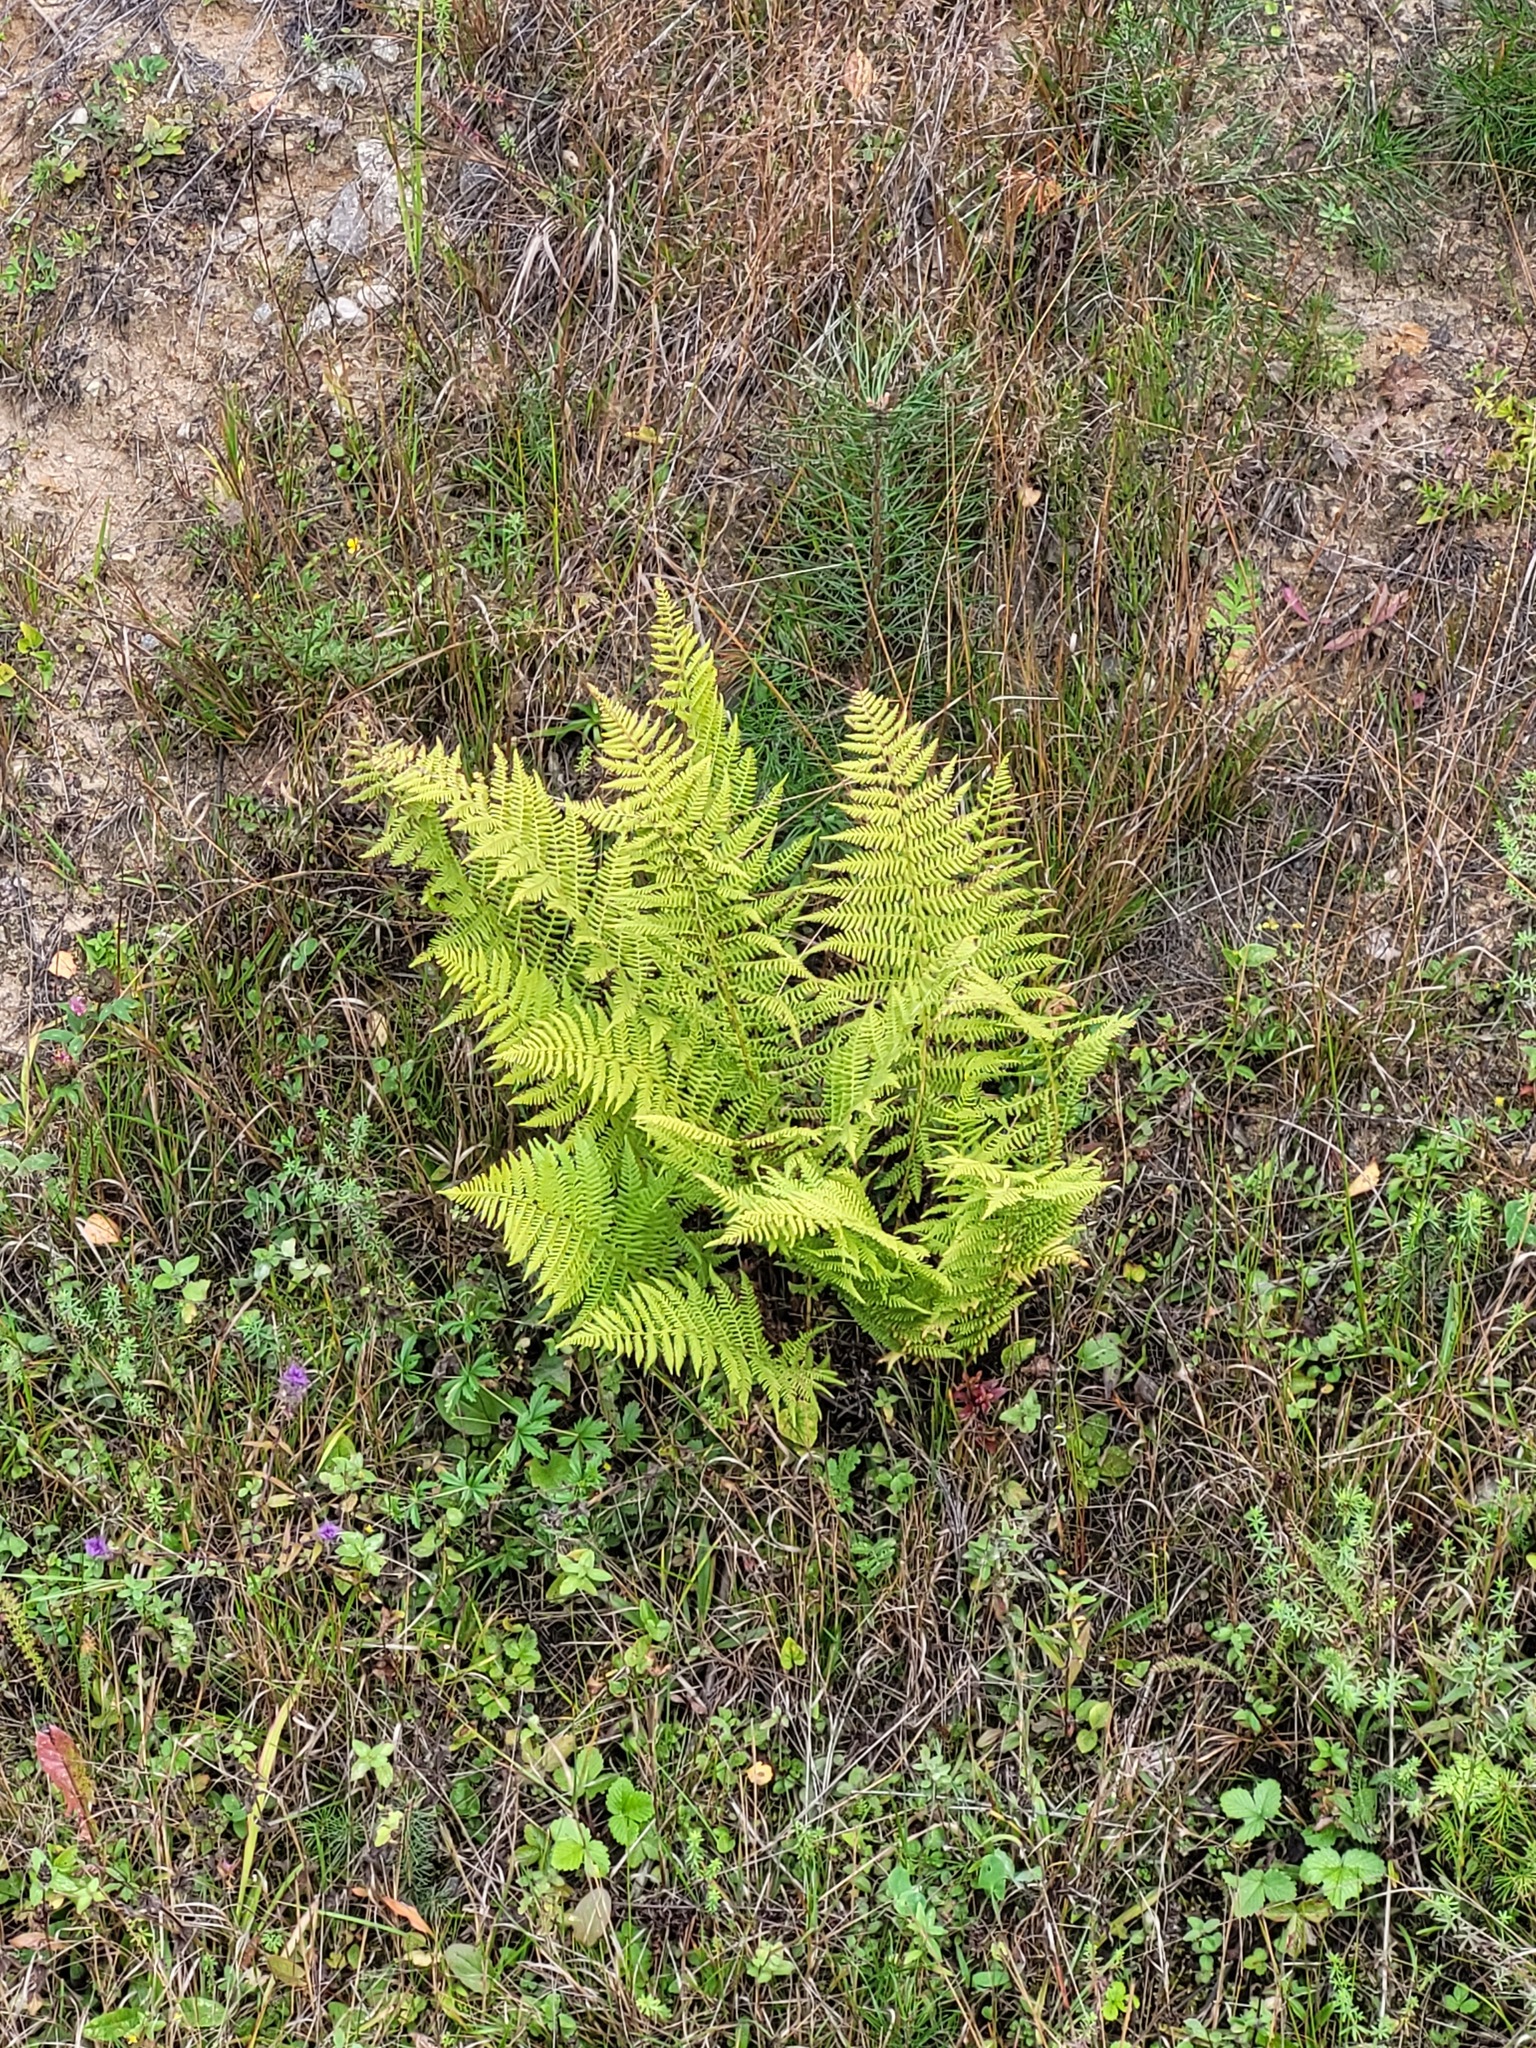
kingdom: Plantae
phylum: Tracheophyta
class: Polypodiopsida
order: Polypodiales
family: Athyriaceae
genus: Athyrium
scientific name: Athyrium filix-femina
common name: Lady fern
